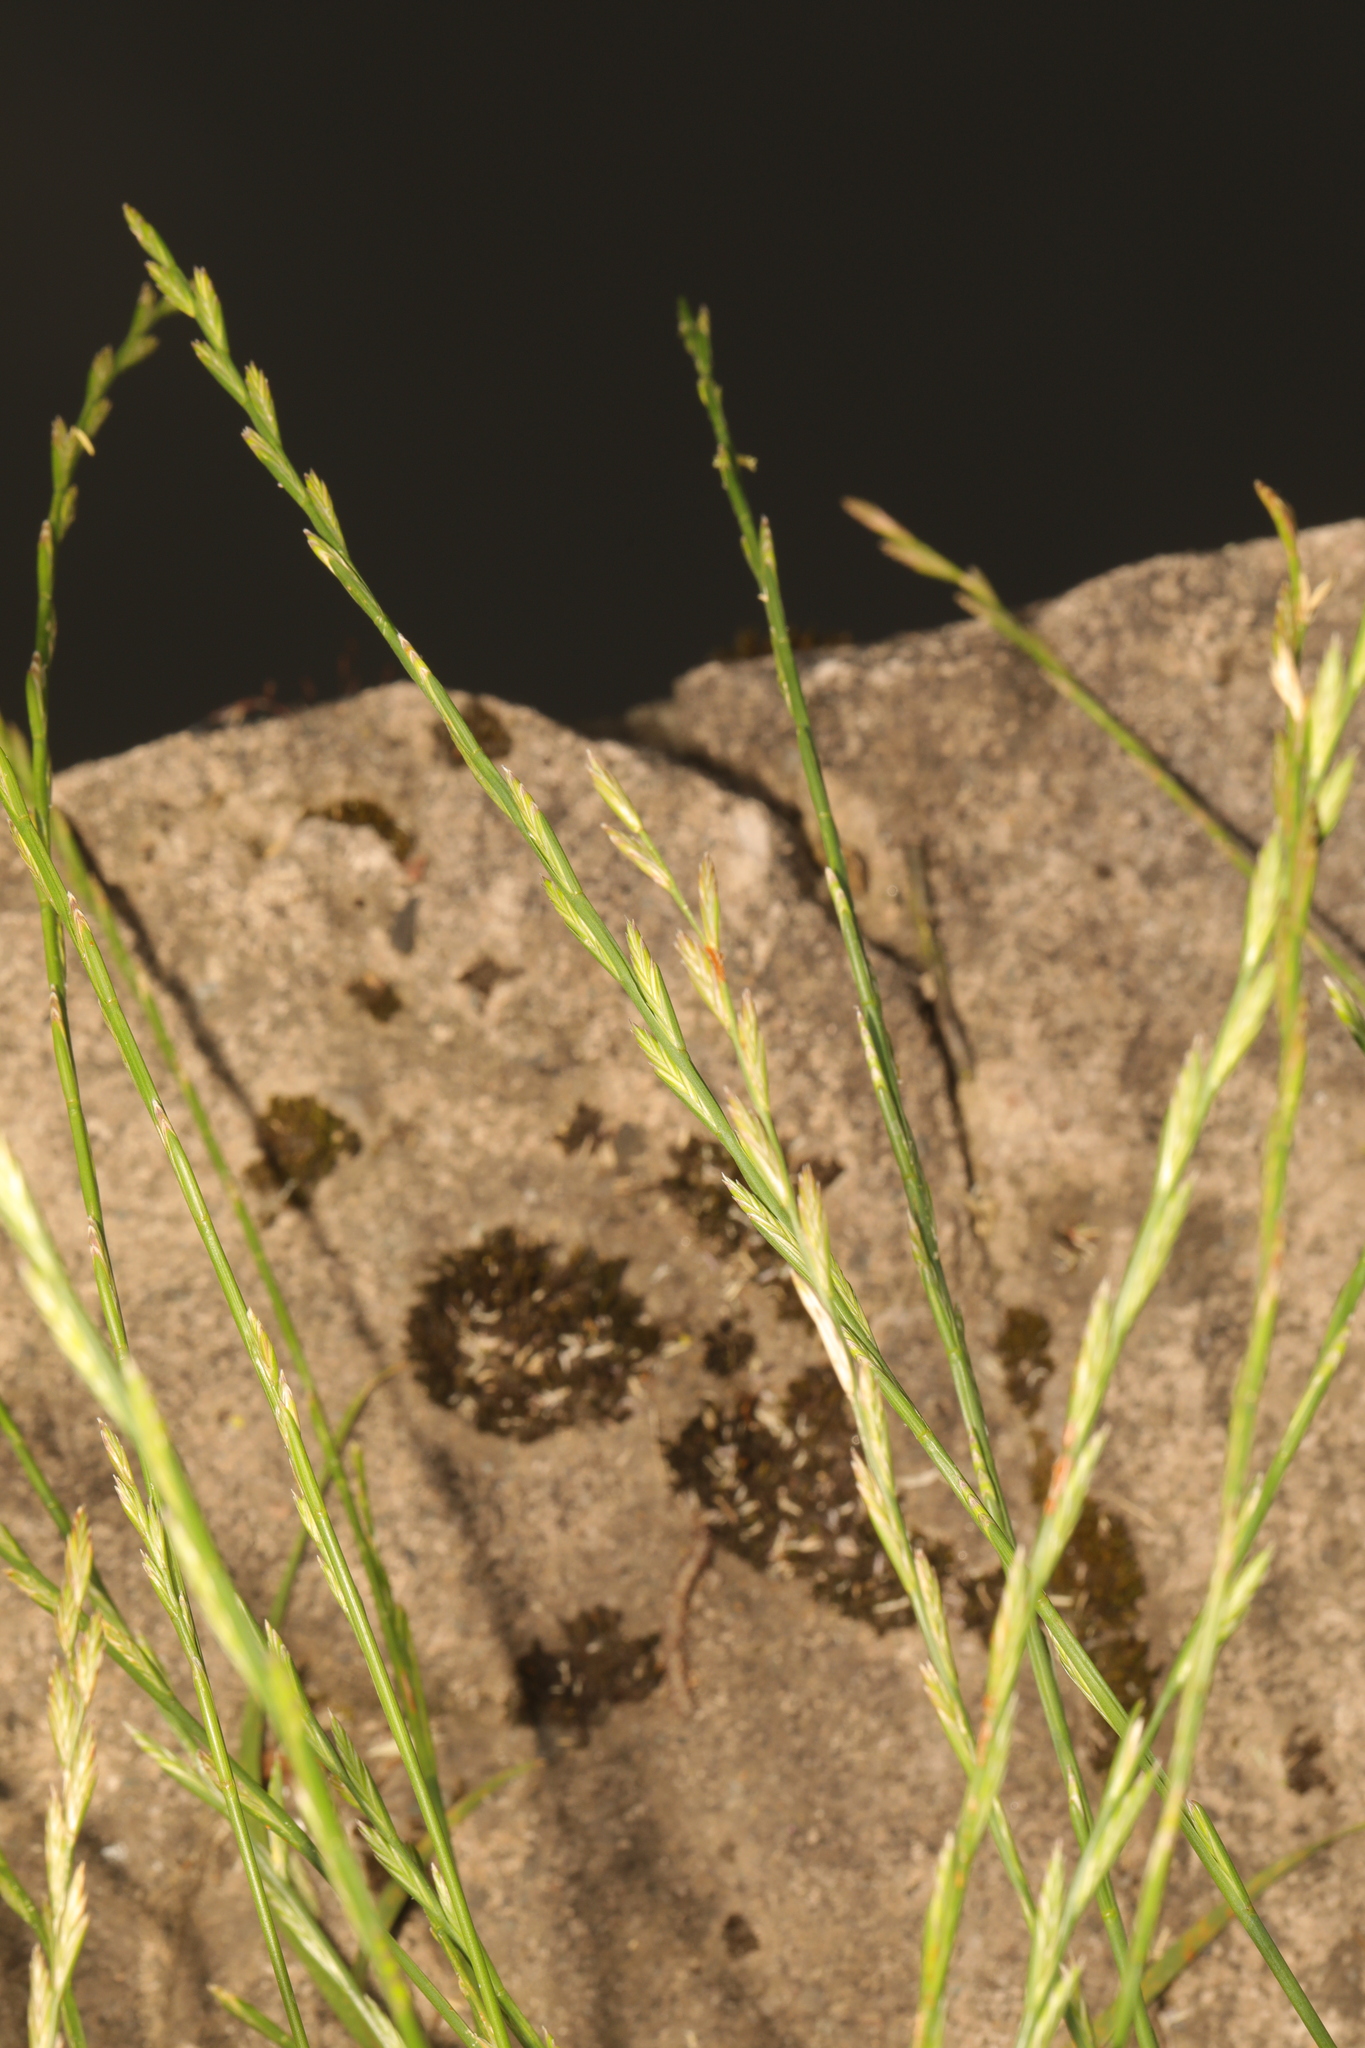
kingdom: Plantae
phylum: Tracheophyta
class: Liliopsida
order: Poales
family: Poaceae
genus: Lolium
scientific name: Lolium perenne
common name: Perennial ryegrass
